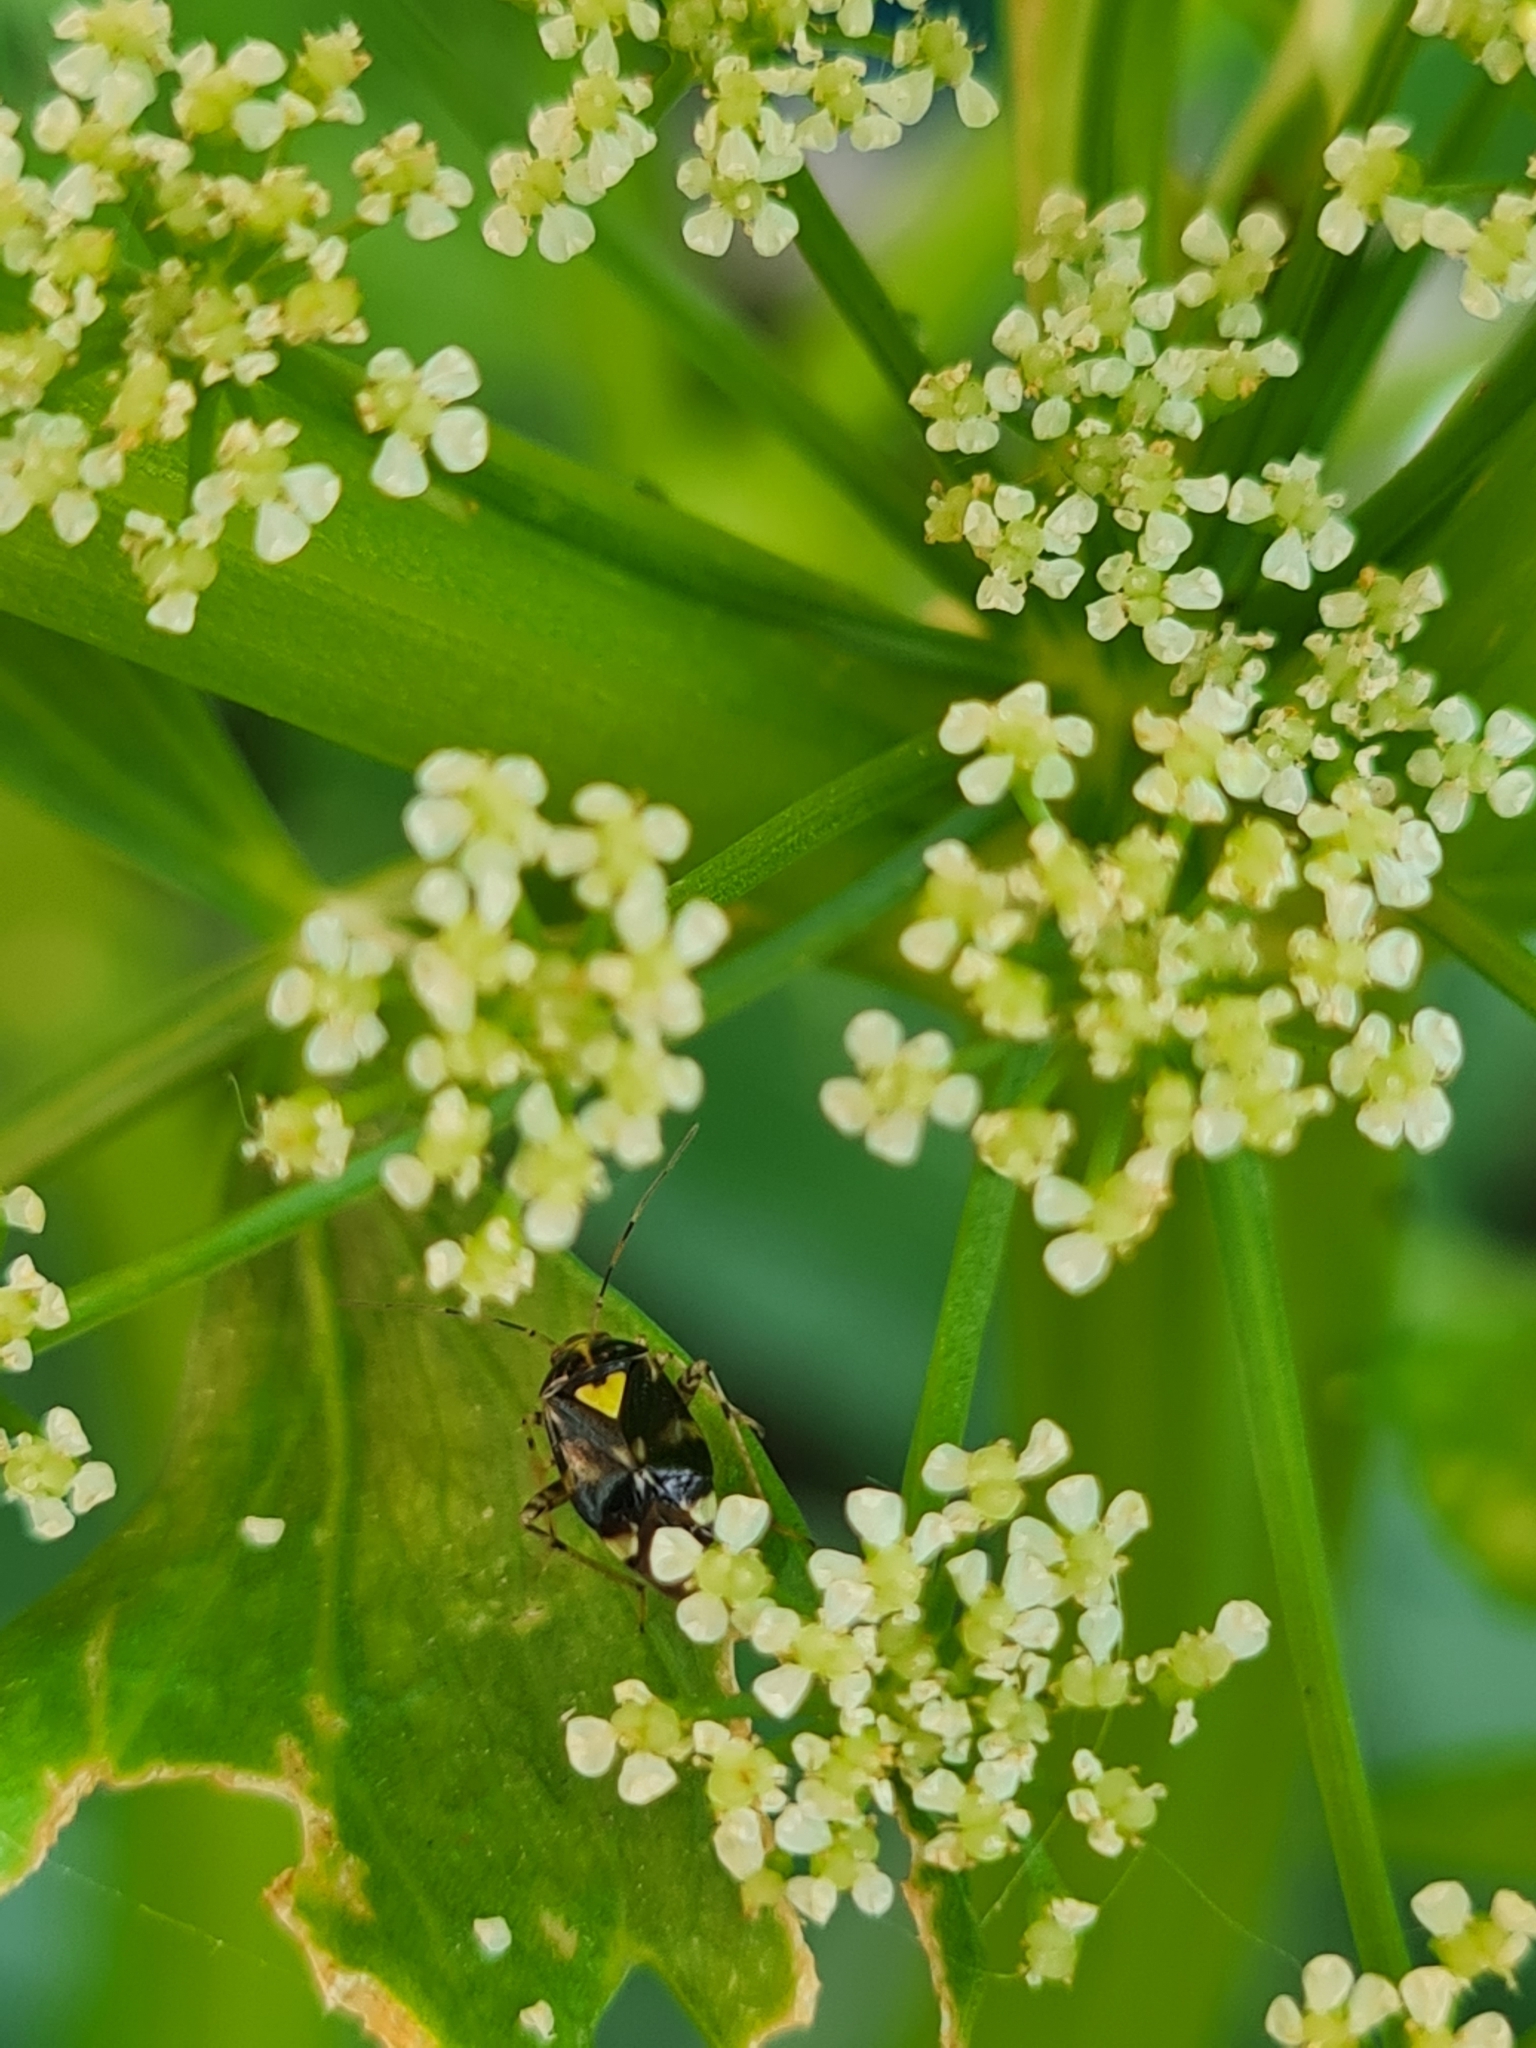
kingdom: Animalia
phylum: Arthropoda
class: Insecta
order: Hemiptera
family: Miridae
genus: Liocoris
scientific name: Liocoris tripustulatus
